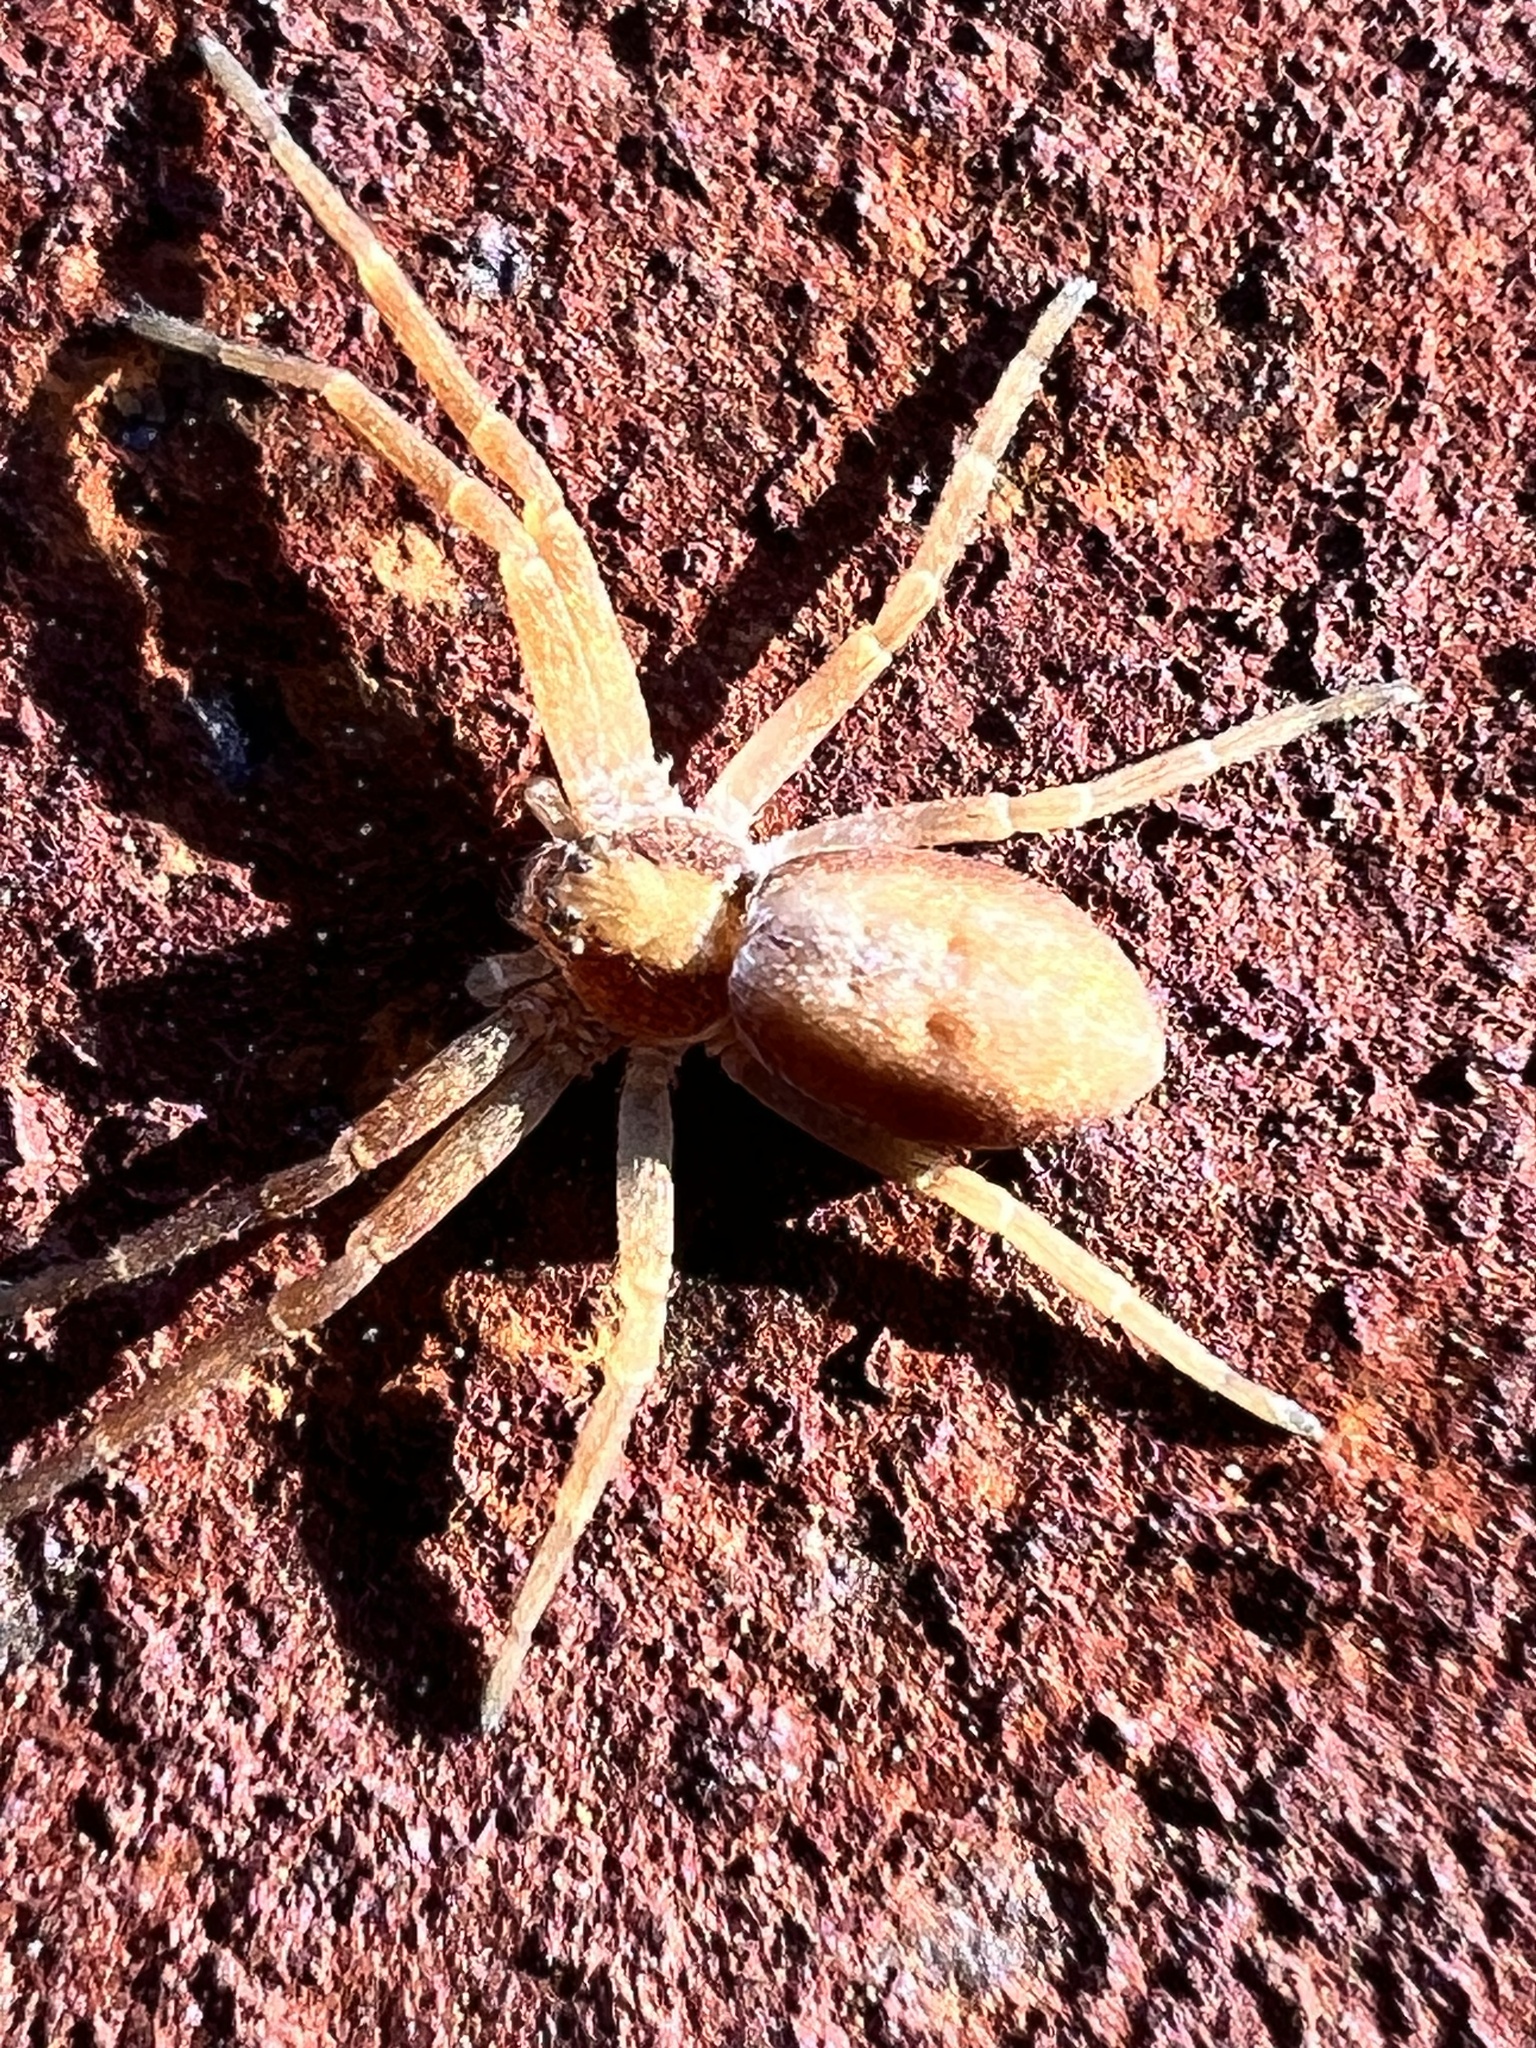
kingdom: Animalia
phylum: Arthropoda
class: Arachnida
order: Araneae
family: Philodromidae
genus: Philodromus
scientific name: Philodromus rufus
